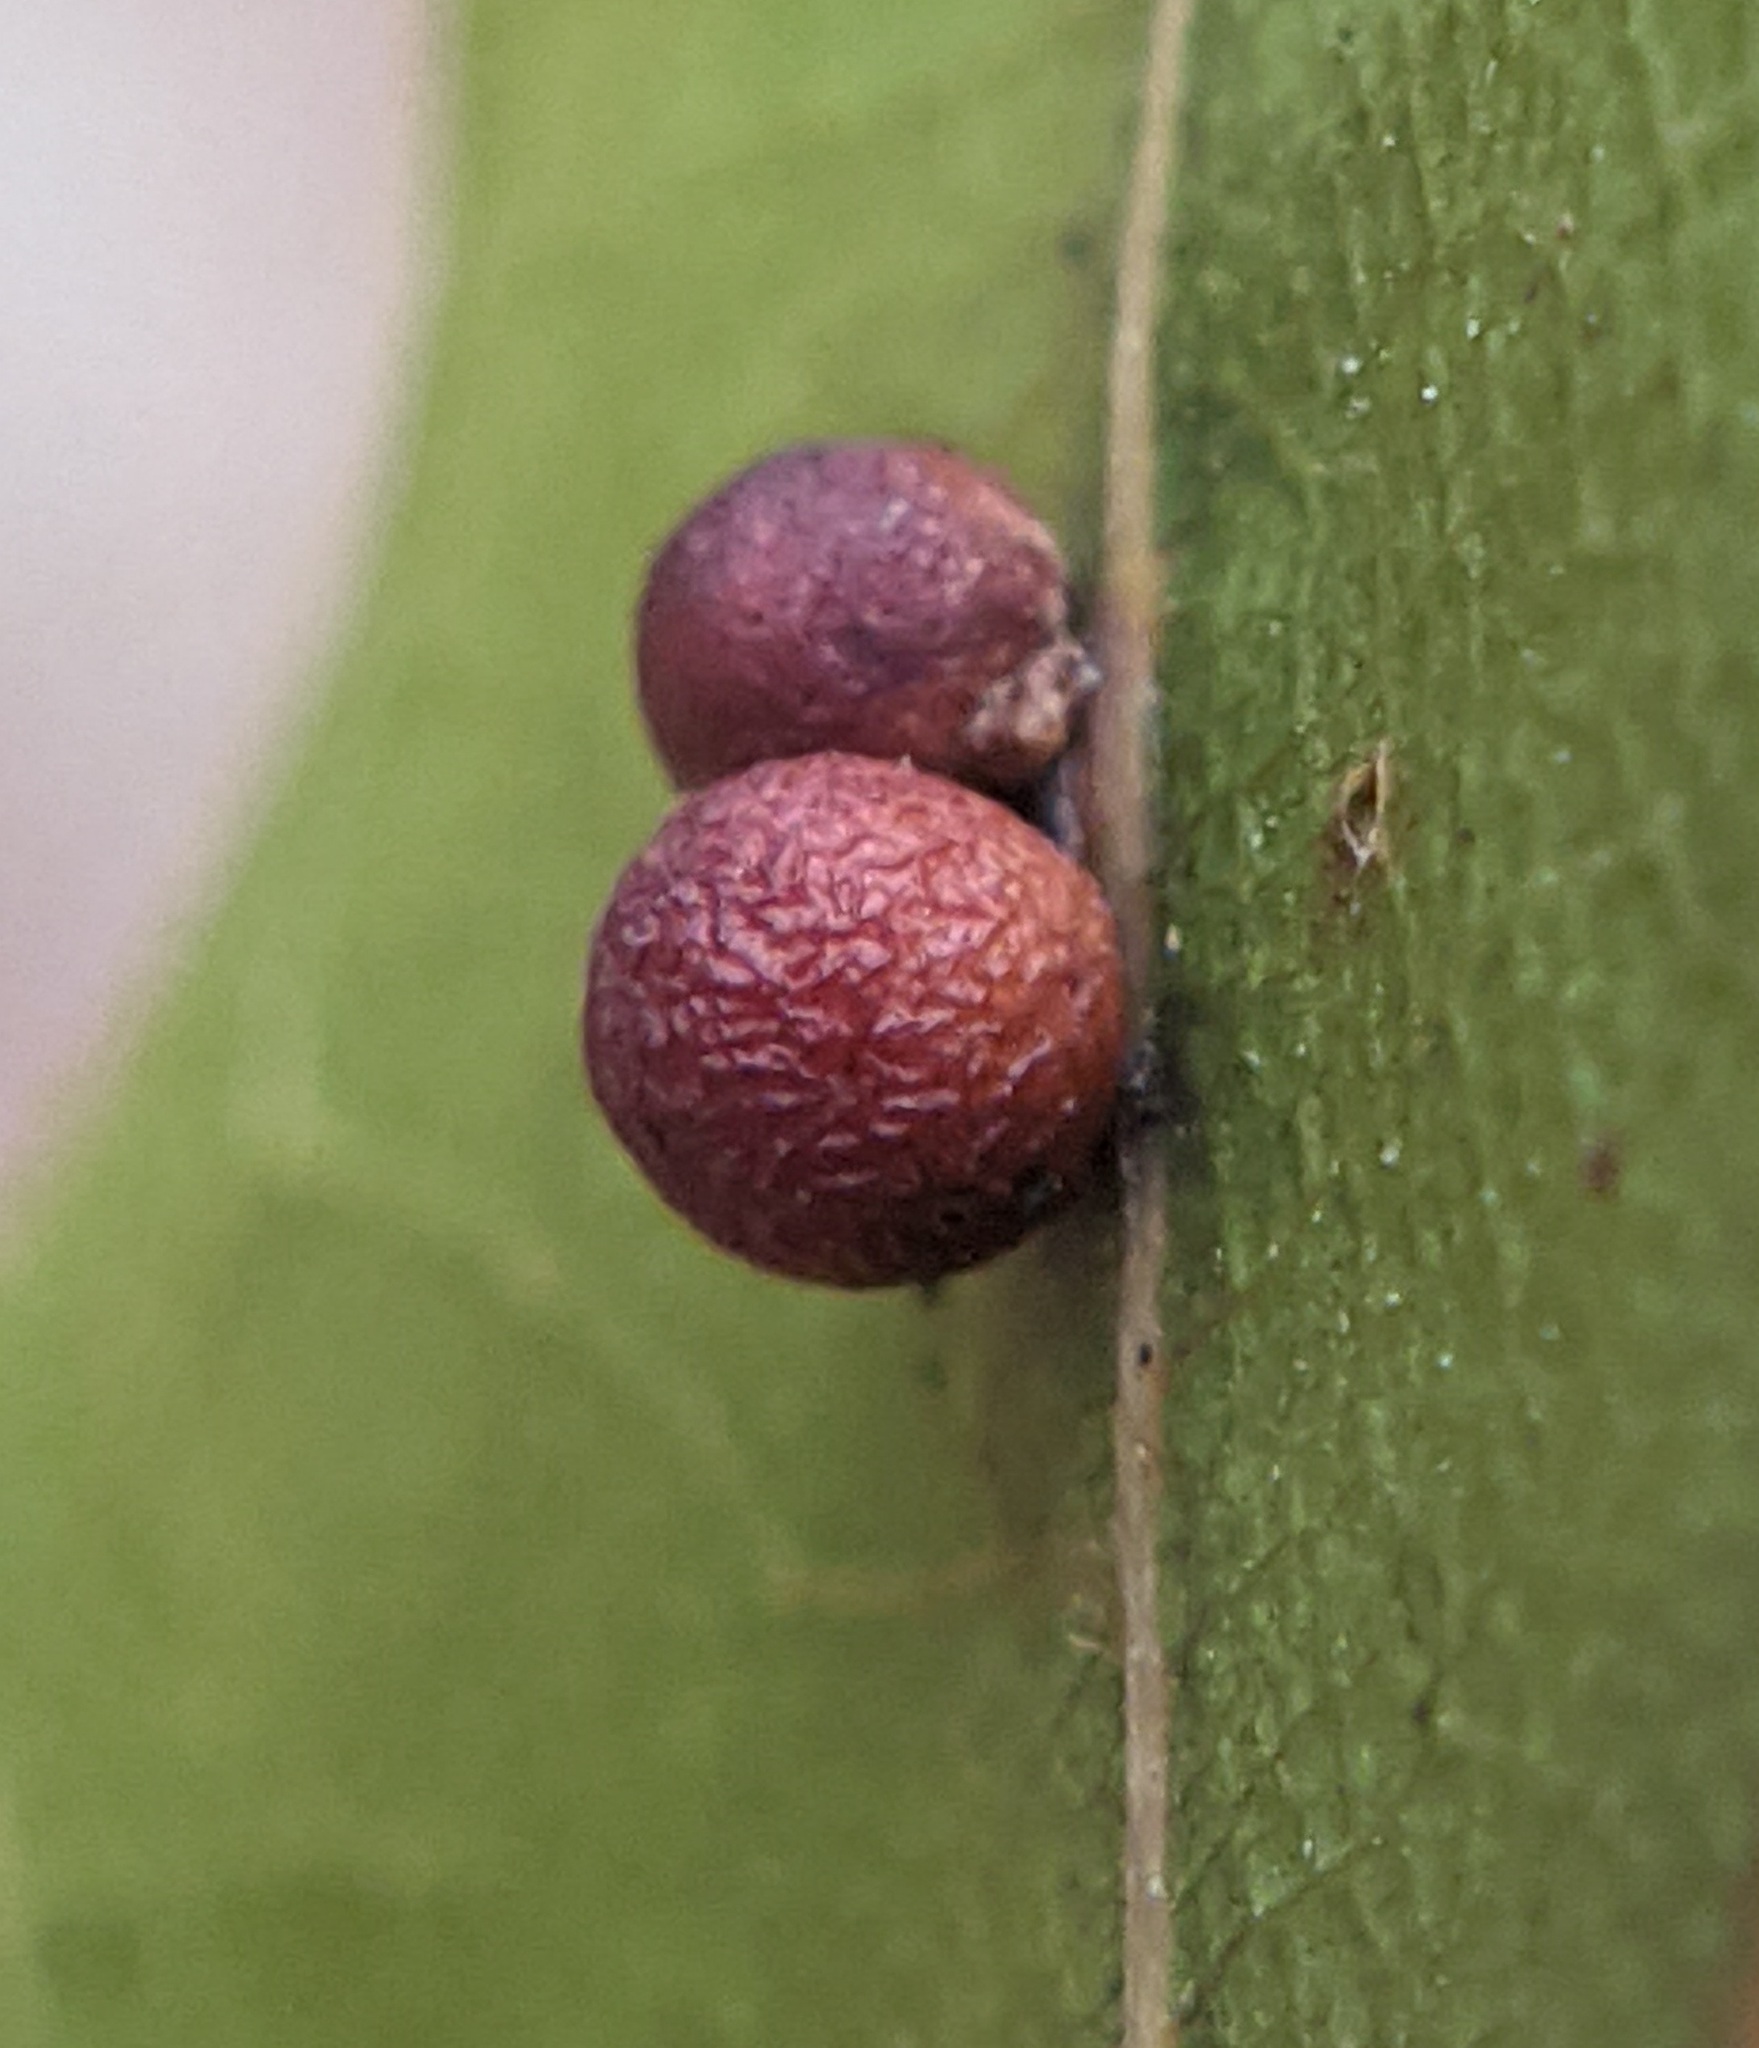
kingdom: Animalia
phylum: Arthropoda
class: Insecta
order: Hymenoptera
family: Cynipidae
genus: Zopheroteras
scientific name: Zopheroteras
